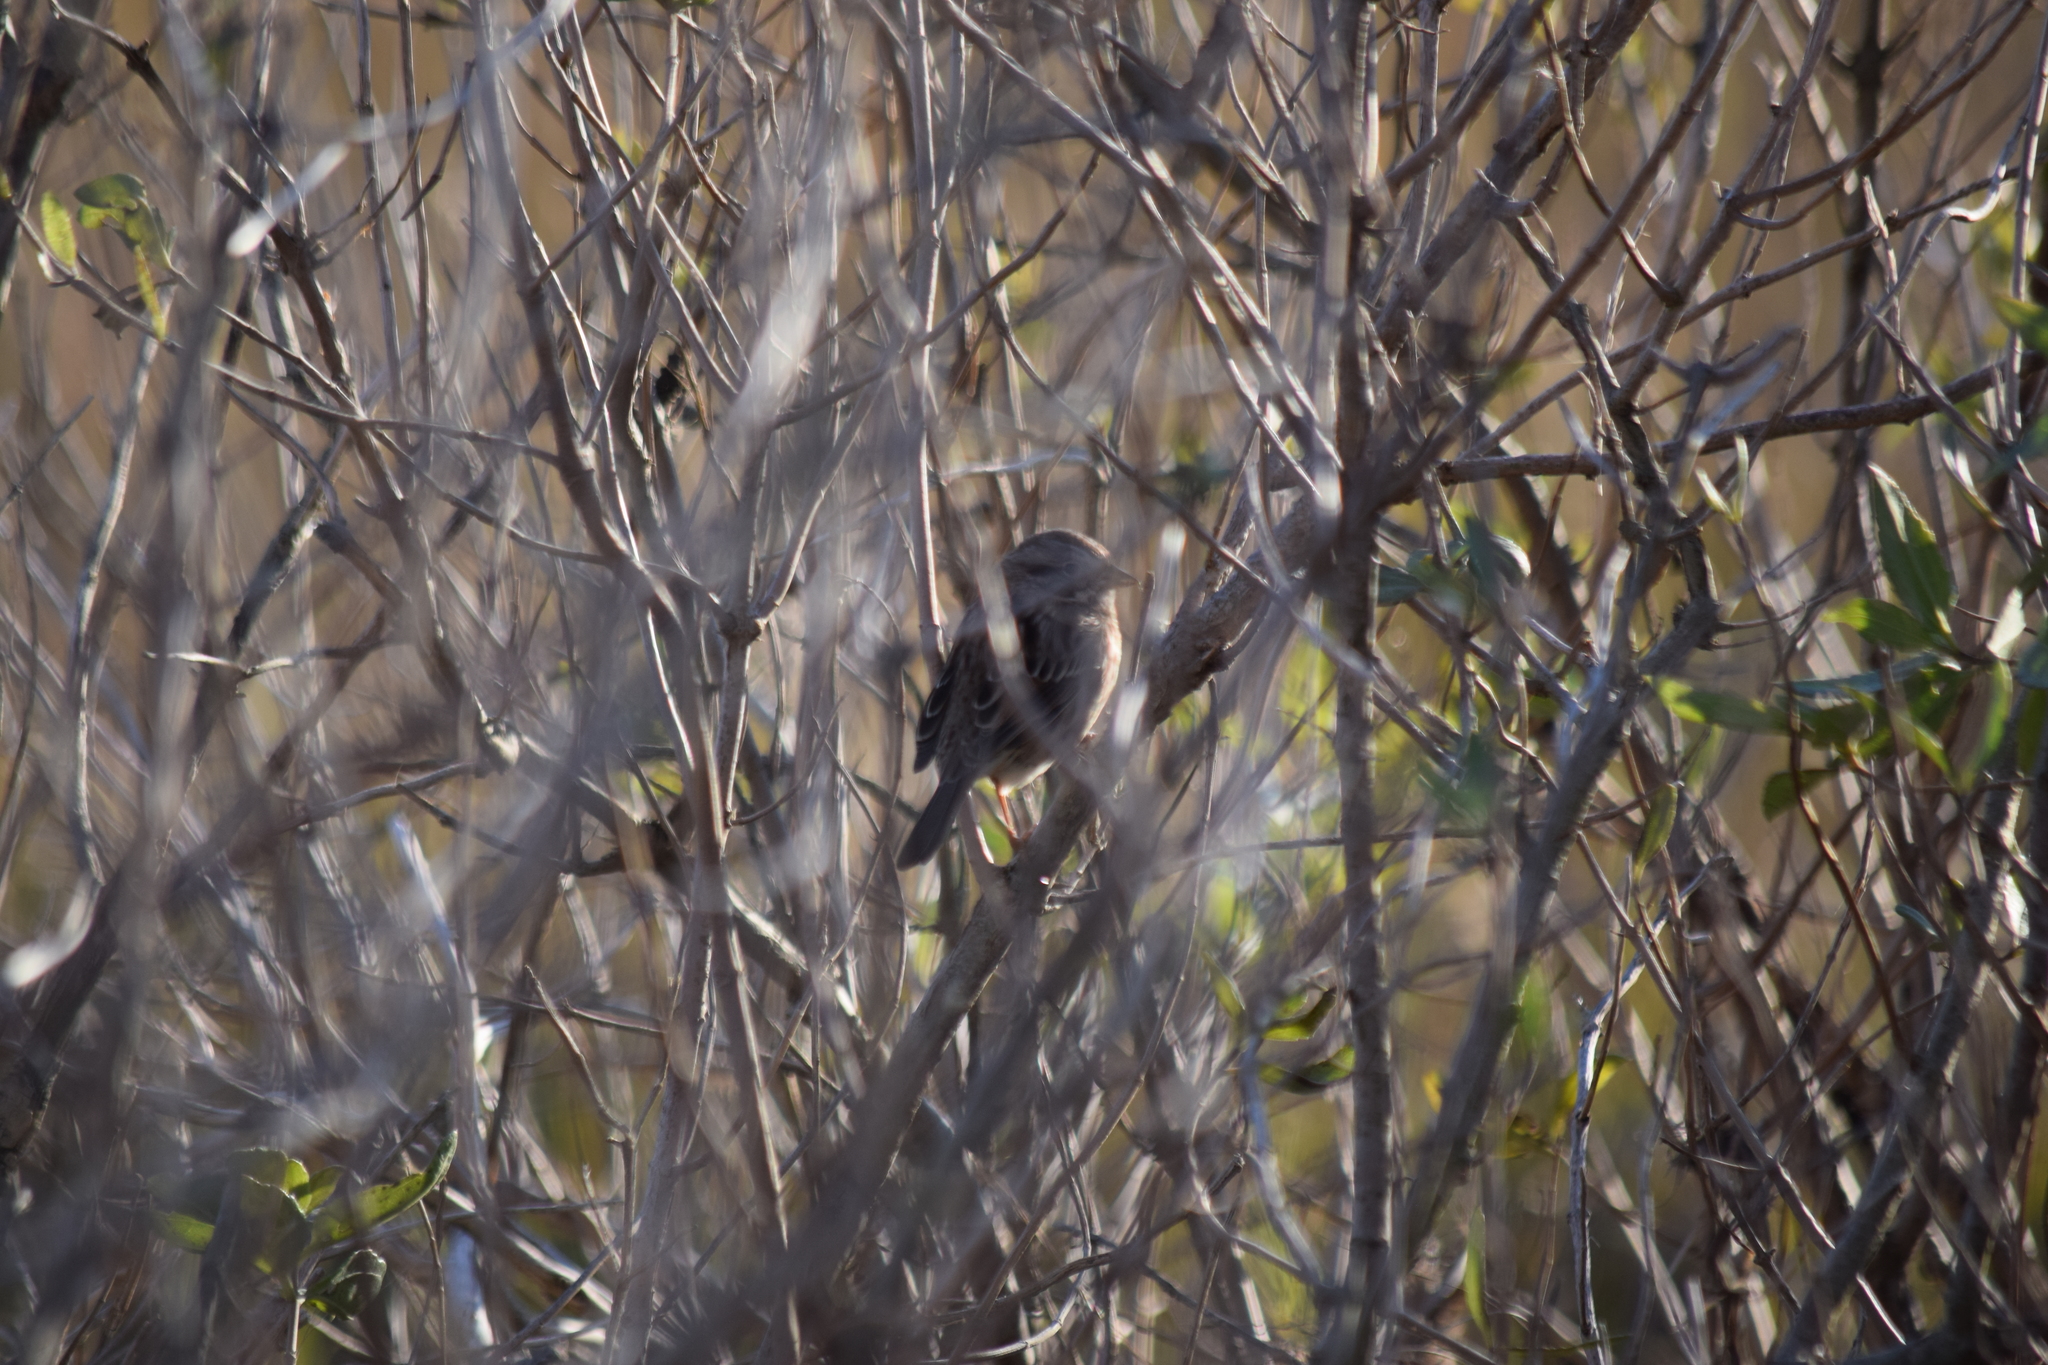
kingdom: Animalia
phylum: Chordata
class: Aves
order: Passeriformes
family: Passerellidae
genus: Melospiza
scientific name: Melospiza melodia
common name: Song sparrow
